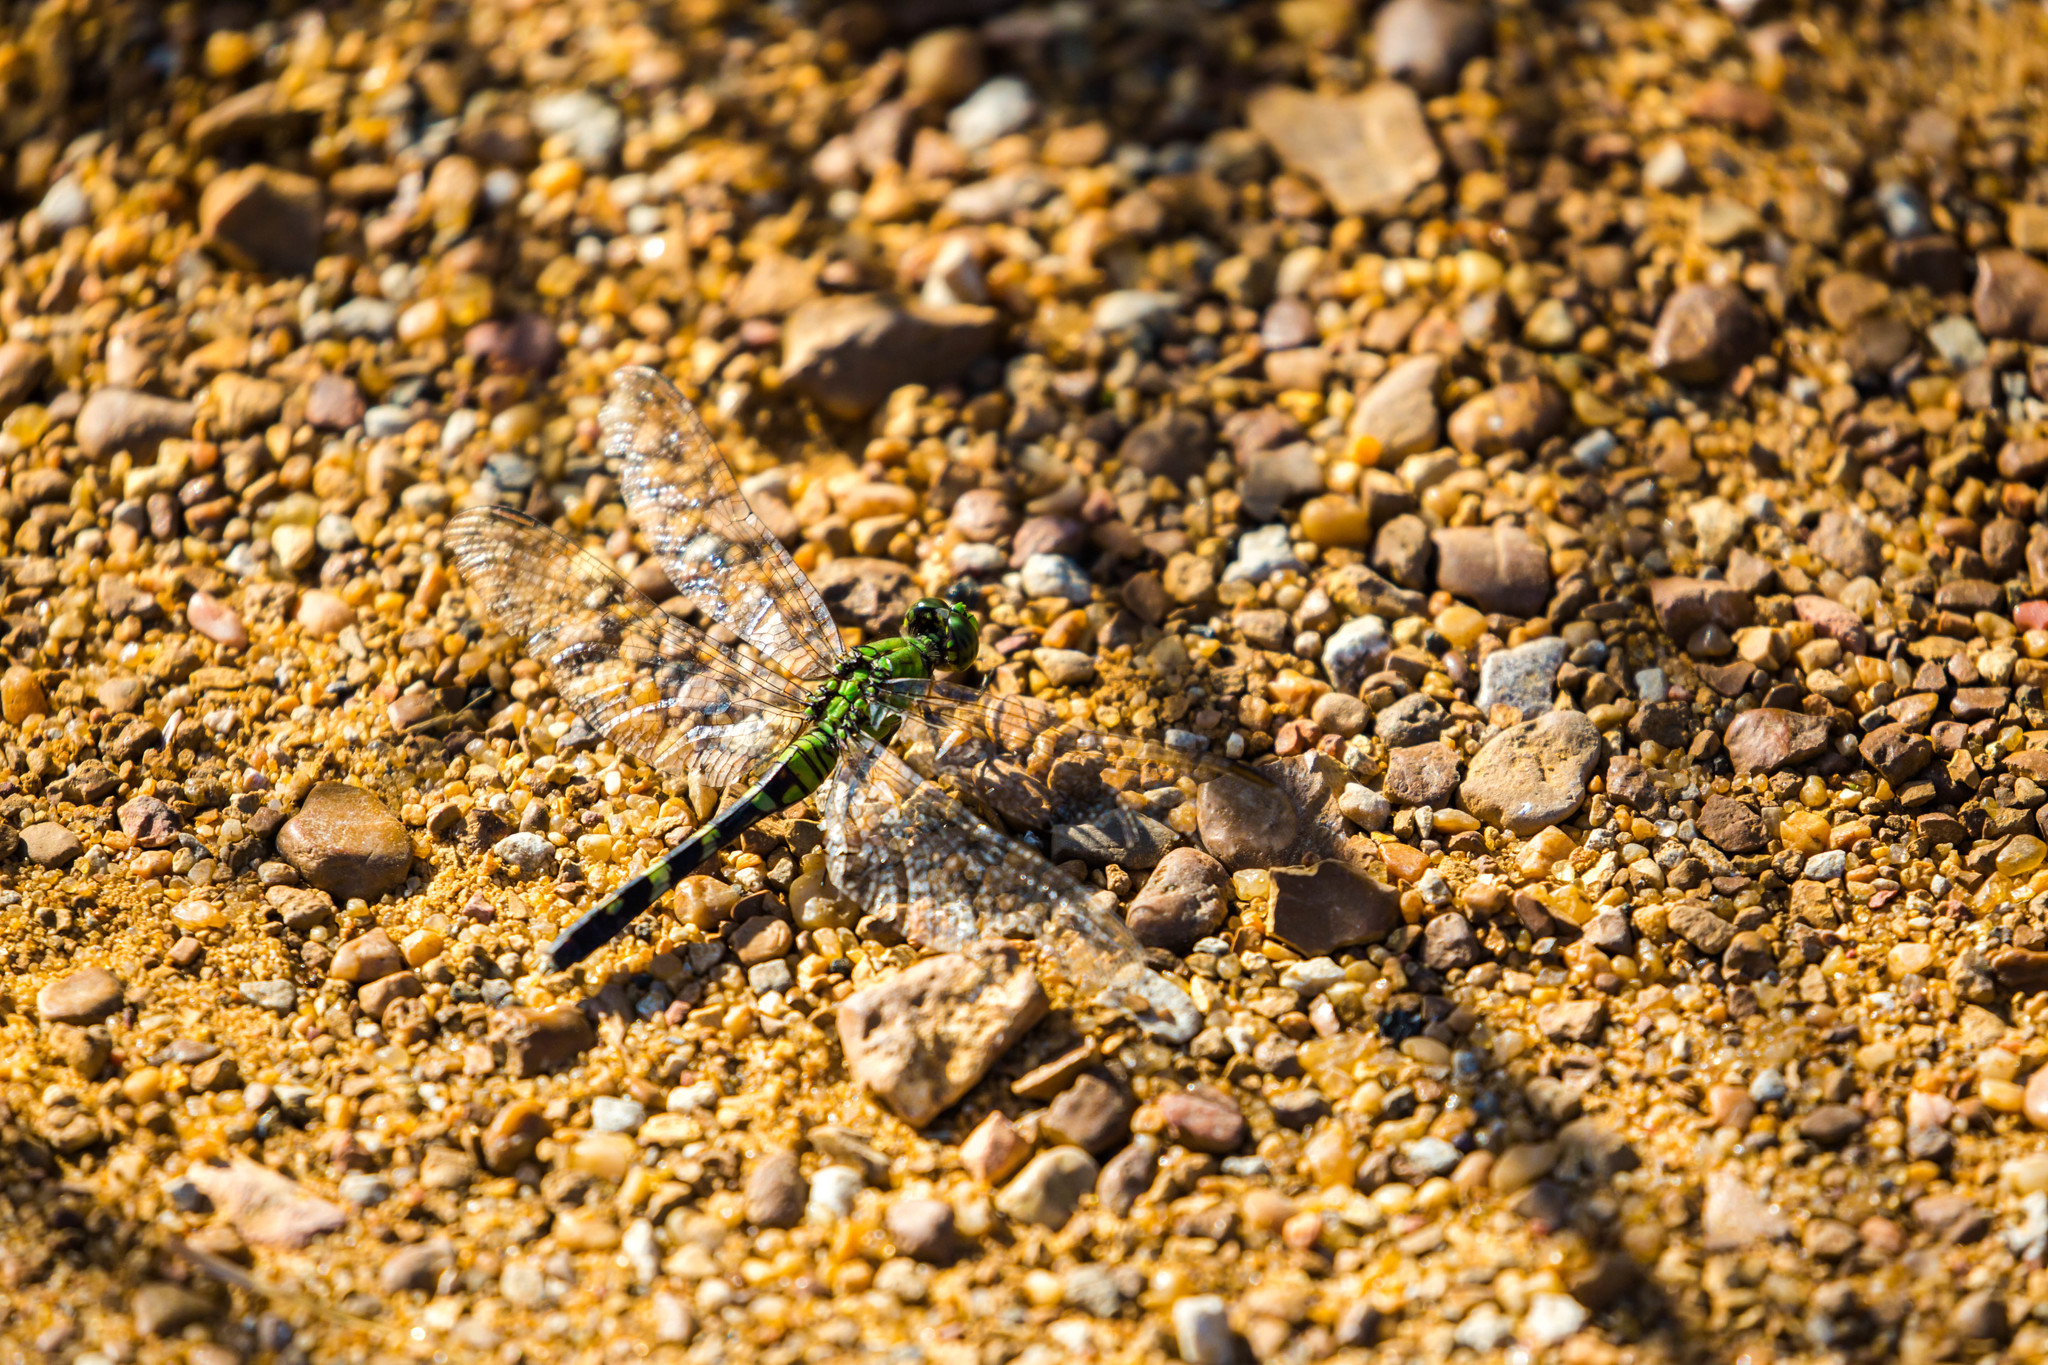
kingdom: Animalia
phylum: Arthropoda
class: Insecta
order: Odonata
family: Libellulidae
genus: Erythemis
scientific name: Erythemis simplicicollis
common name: Eastern pondhawk
